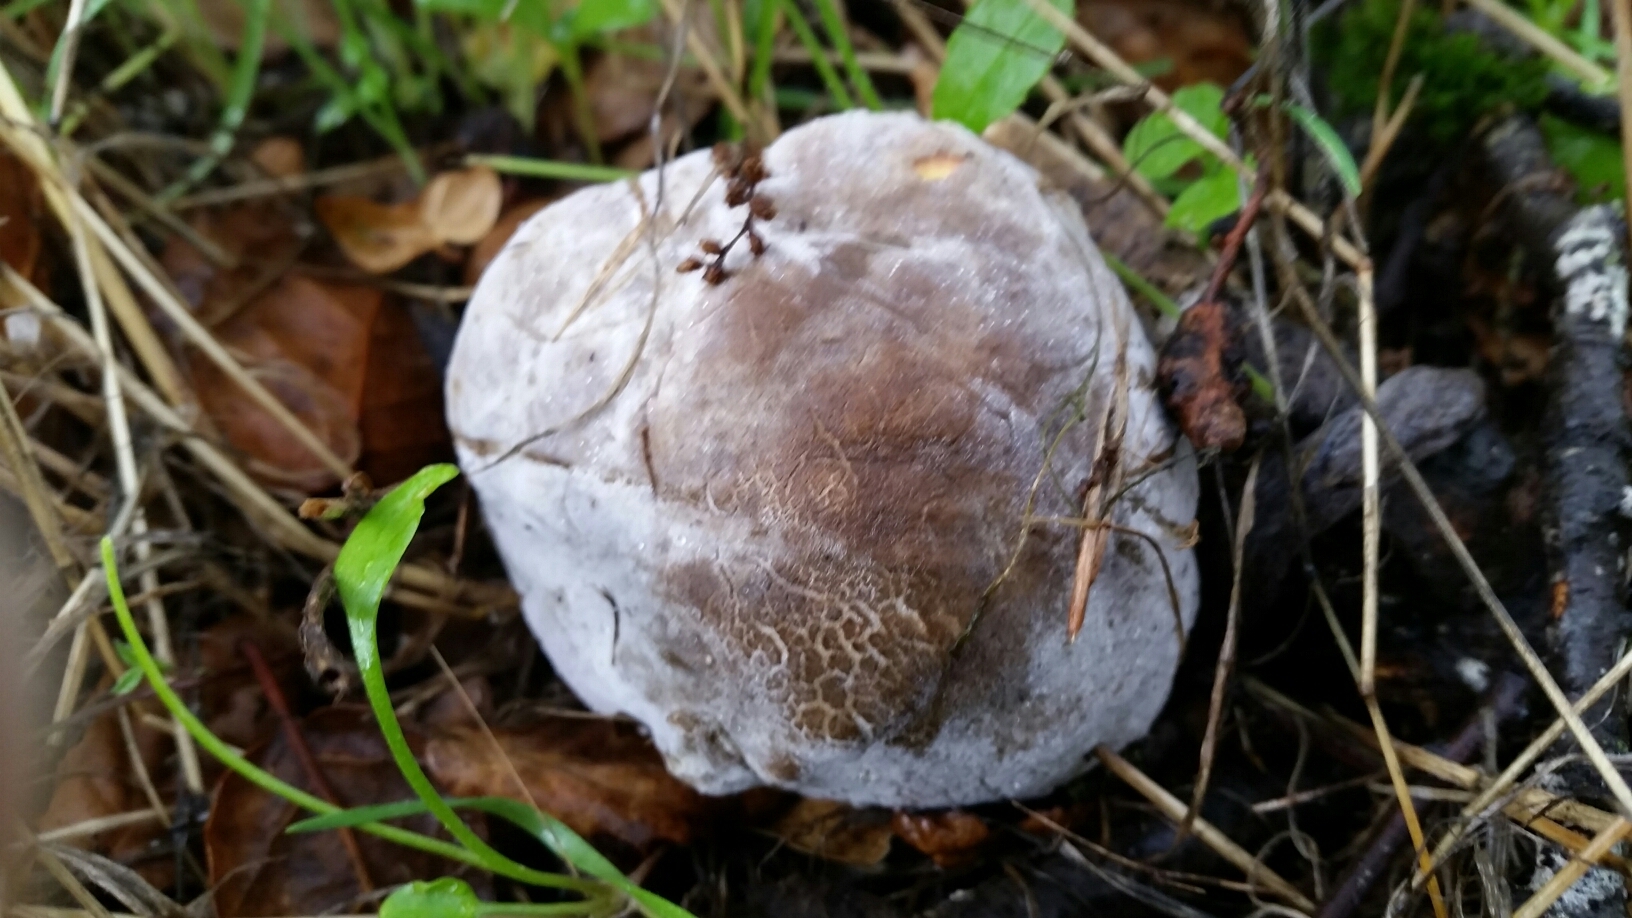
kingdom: Fungi
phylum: Ascomycota
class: Sordariomycetes
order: Hypocreales
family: Hypocreaceae
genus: Hypomyces
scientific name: Hypomyces chrysospermus
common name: Bolete mould
